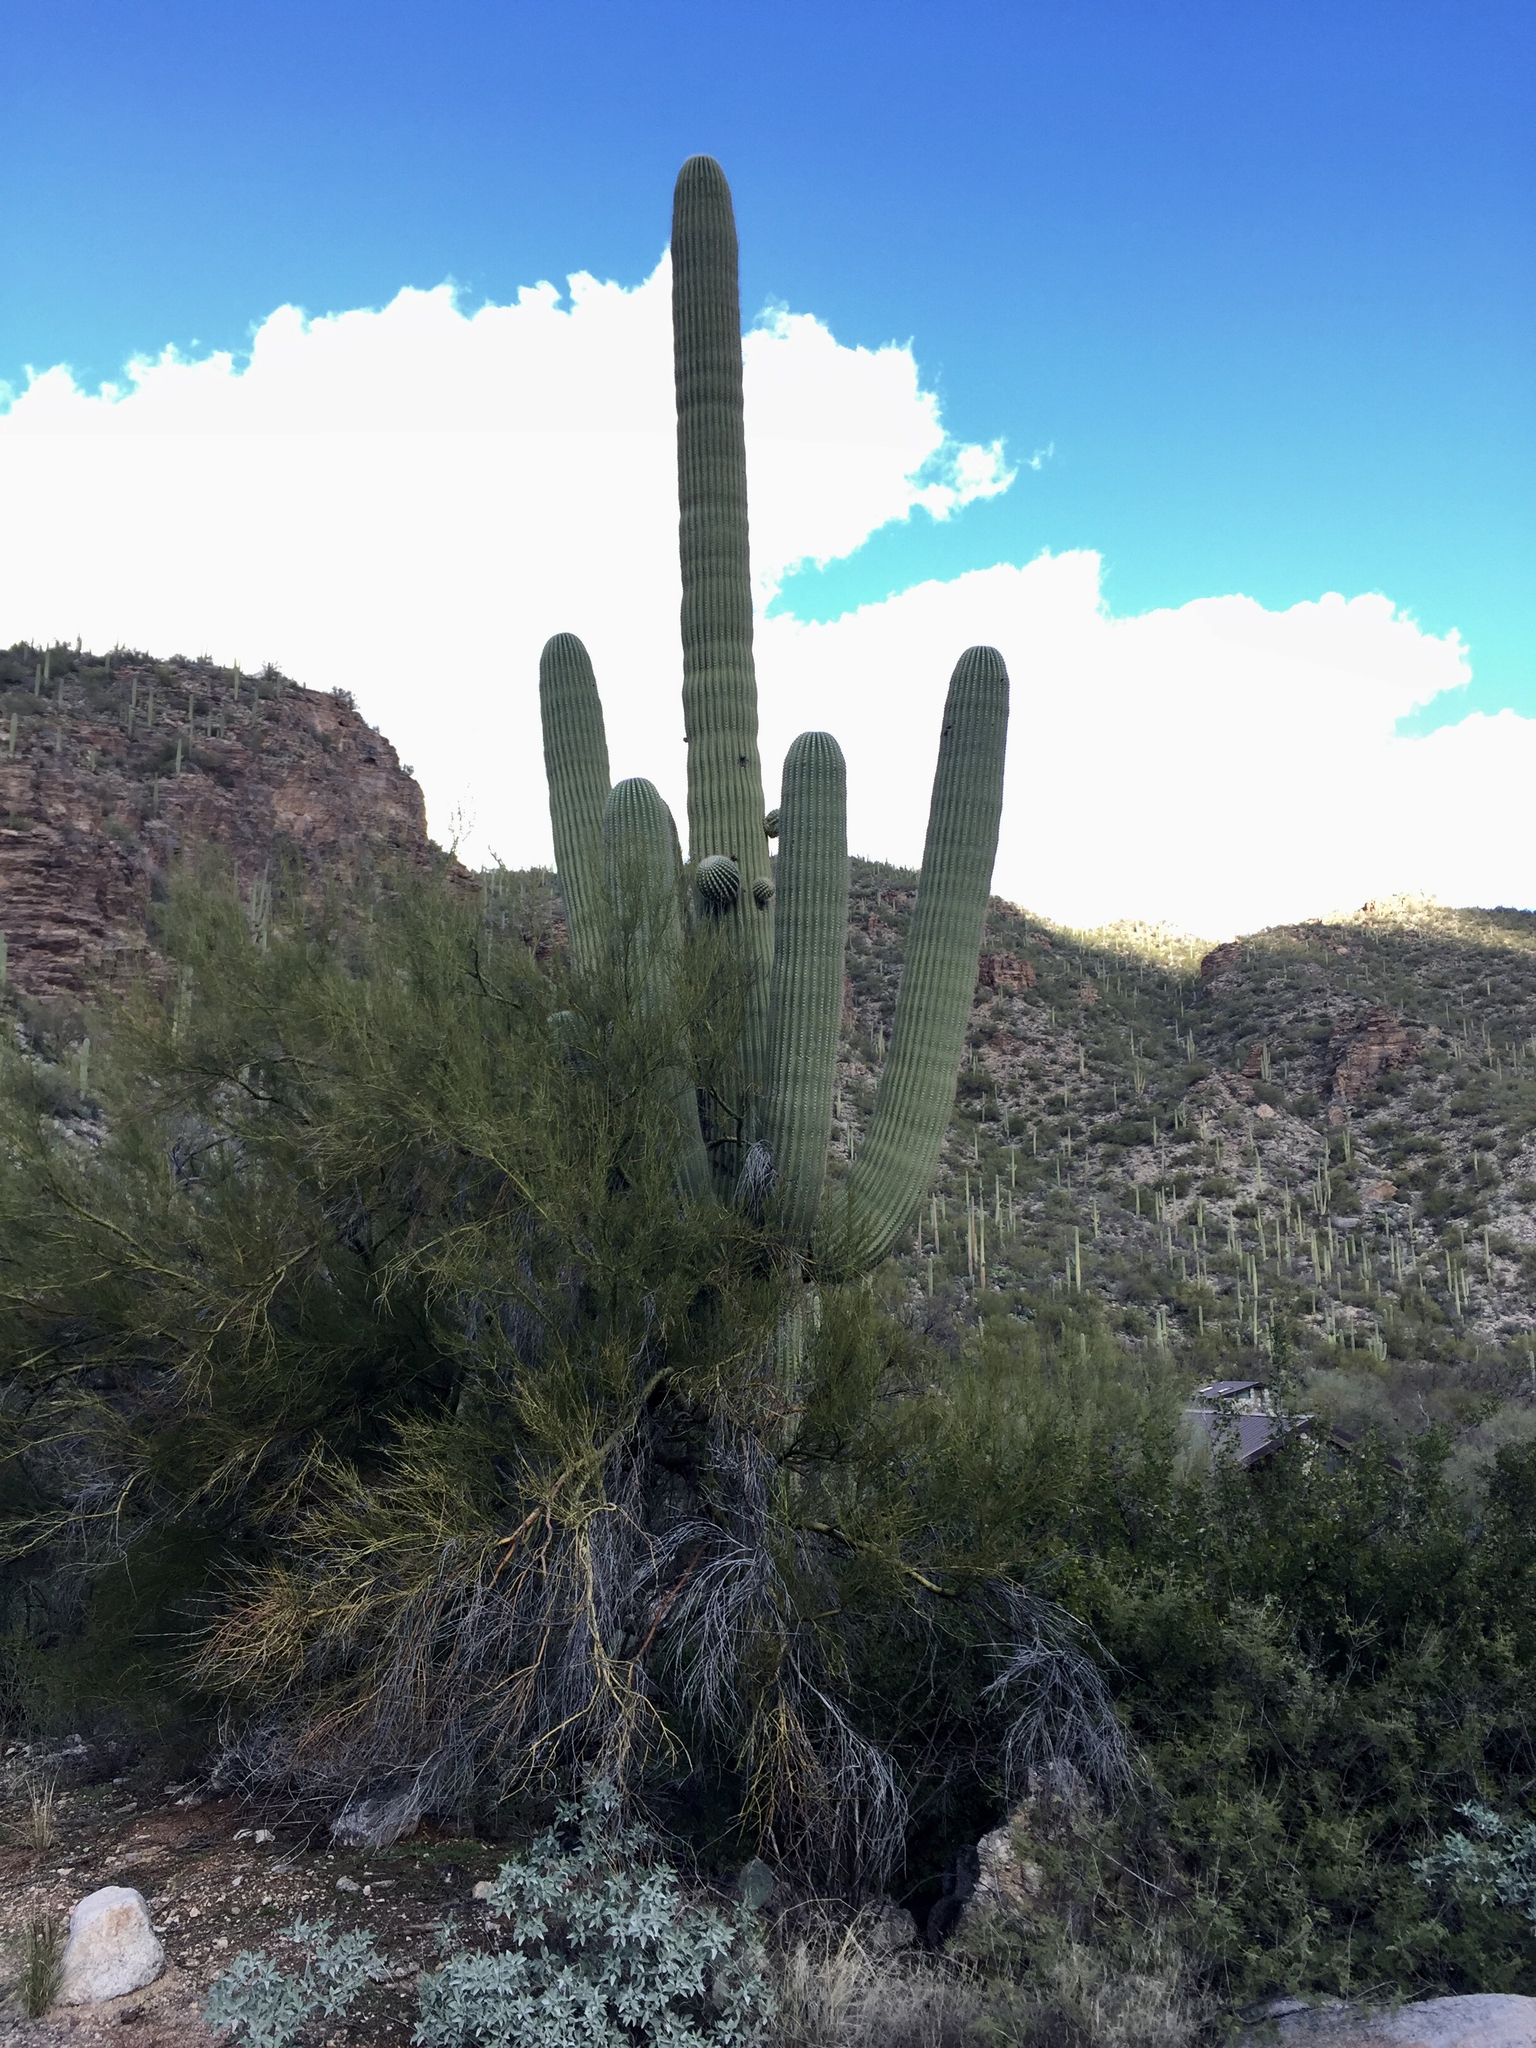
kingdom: Plantae
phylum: Tracheophyta
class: Magnoliopsida
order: Caryophyllales
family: Cactaceae
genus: Carnegiea
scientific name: Carnegiea gigantea
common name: Saguaro
